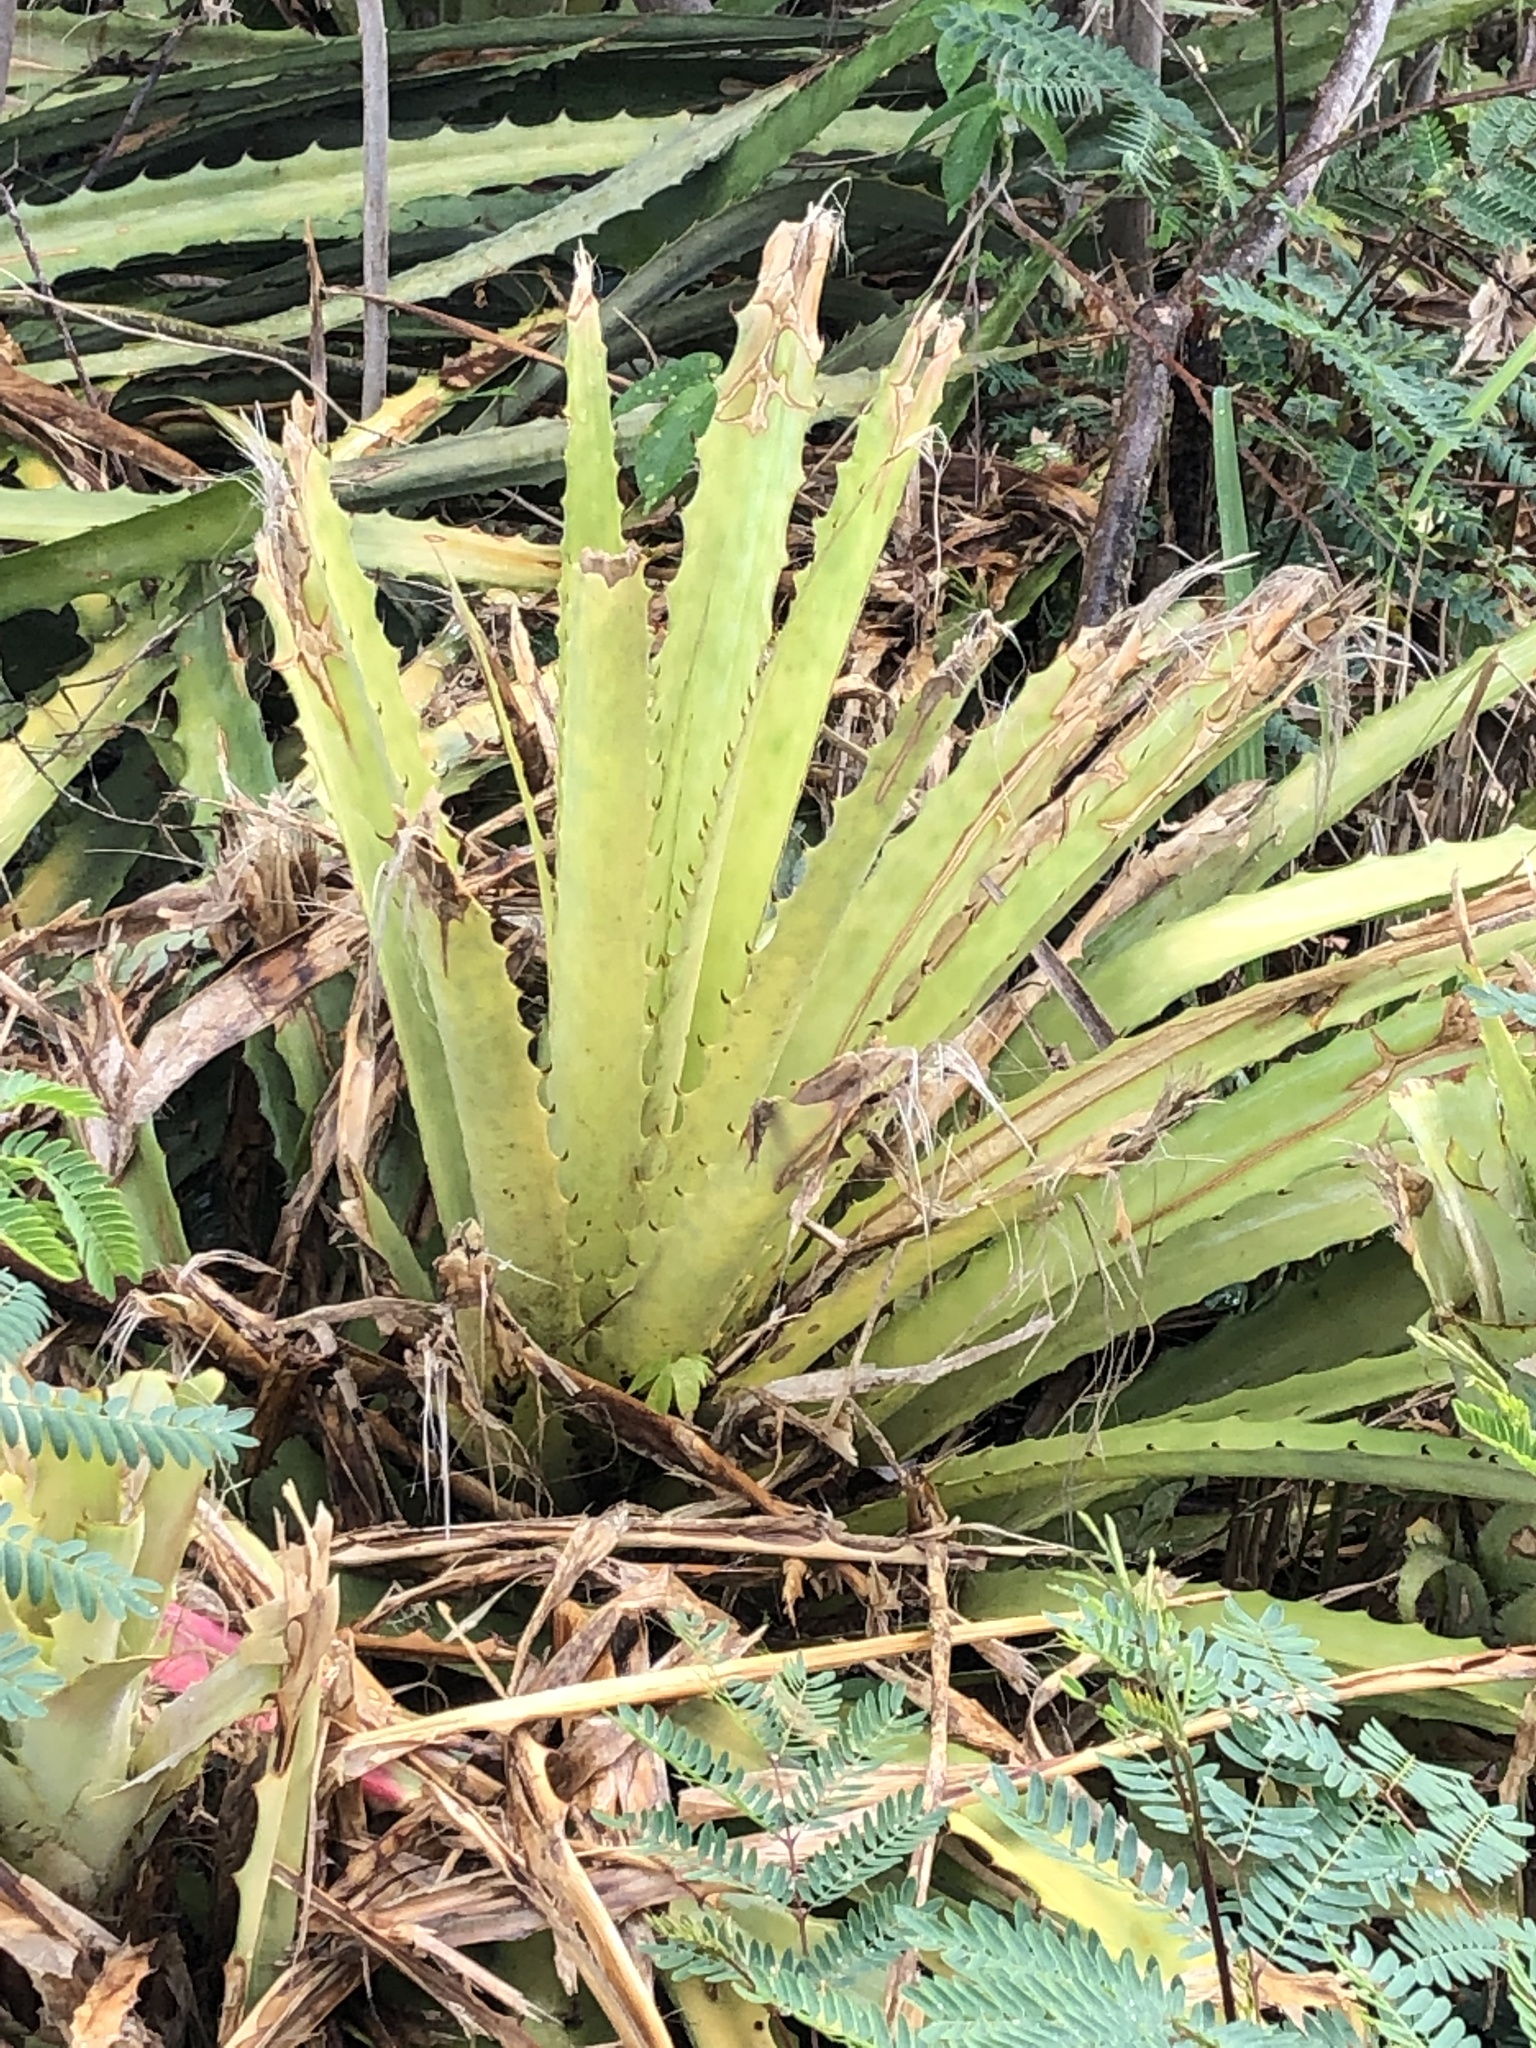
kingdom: Plantae
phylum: Tracheophyta
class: Liliopsida
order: Poales
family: Bromeliaceae
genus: Bromelia
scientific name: Bromelia pinguin
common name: Pinguin
